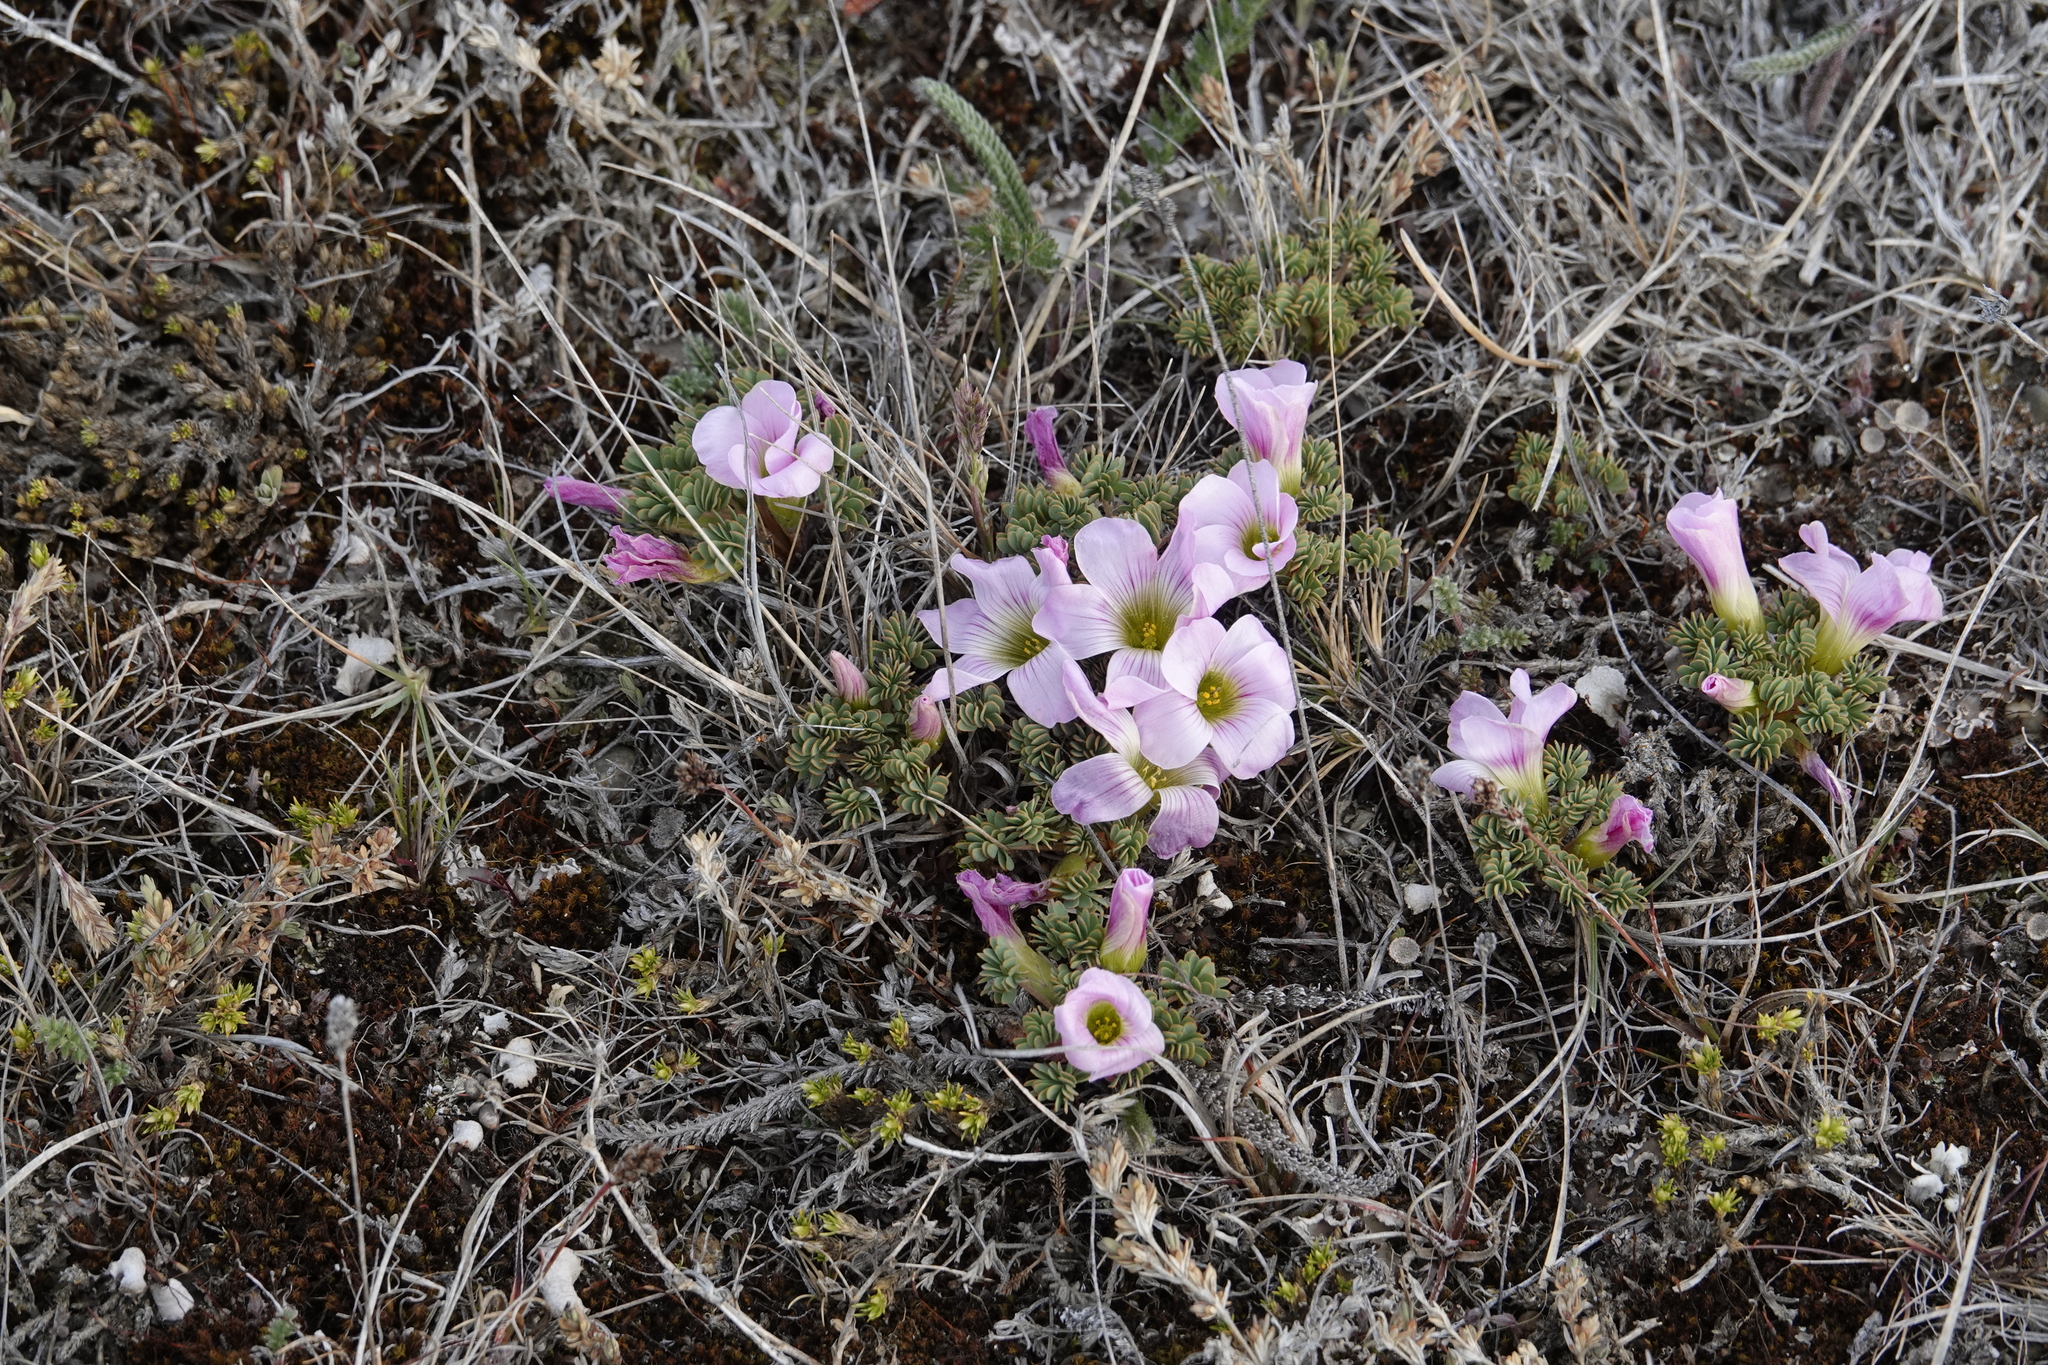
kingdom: Plantae
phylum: Tracheophyta
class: Magnoliopsida
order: Oxalidales
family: Oxalidaceae
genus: Oxalis
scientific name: Oxalis enneaphylla
